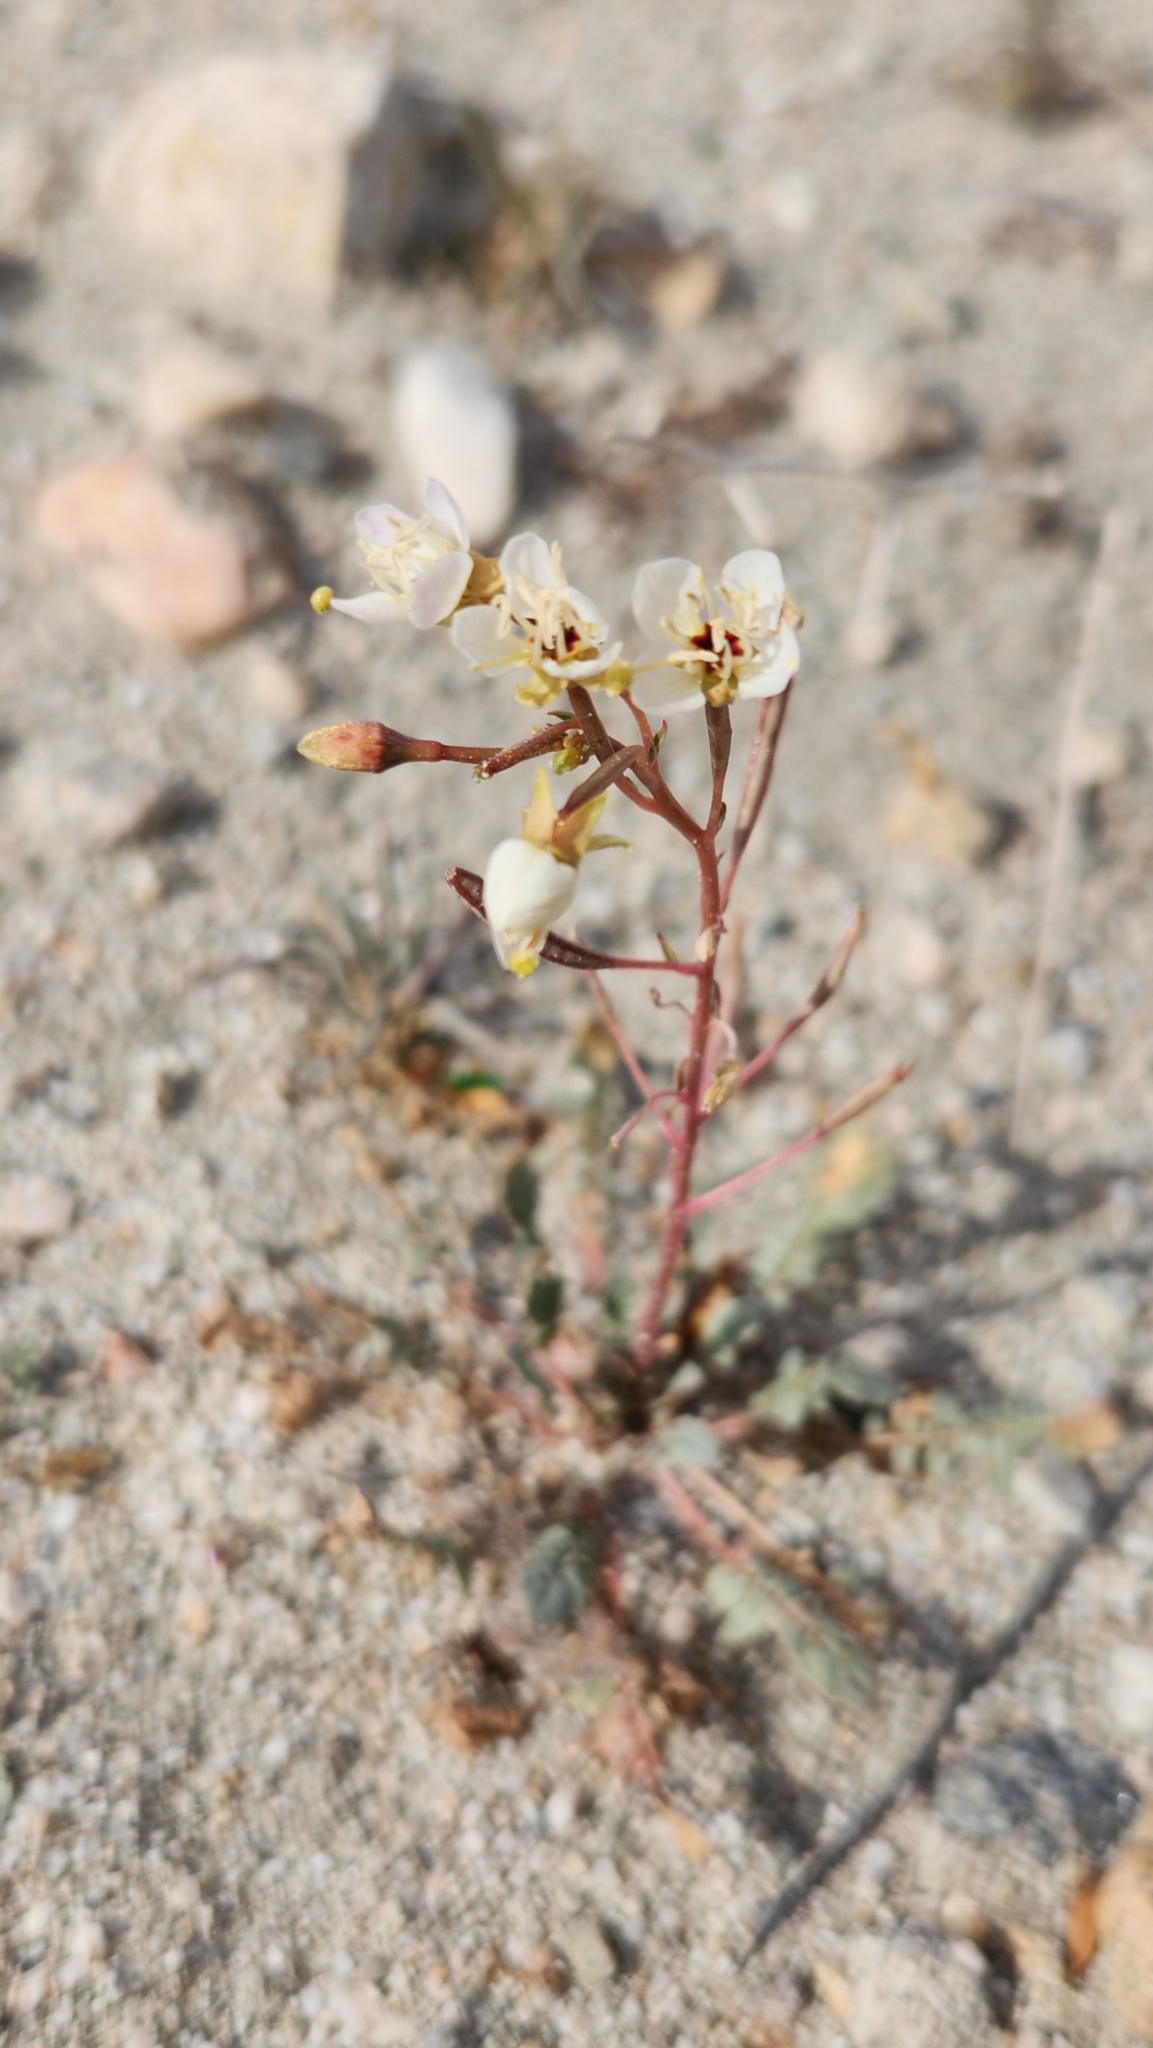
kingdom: Plantae
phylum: Tracheophyta
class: Magnoliopsida
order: Myrtales
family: Onagraceae
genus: Chylismia
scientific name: Chylismia claviformis
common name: Browneyes
